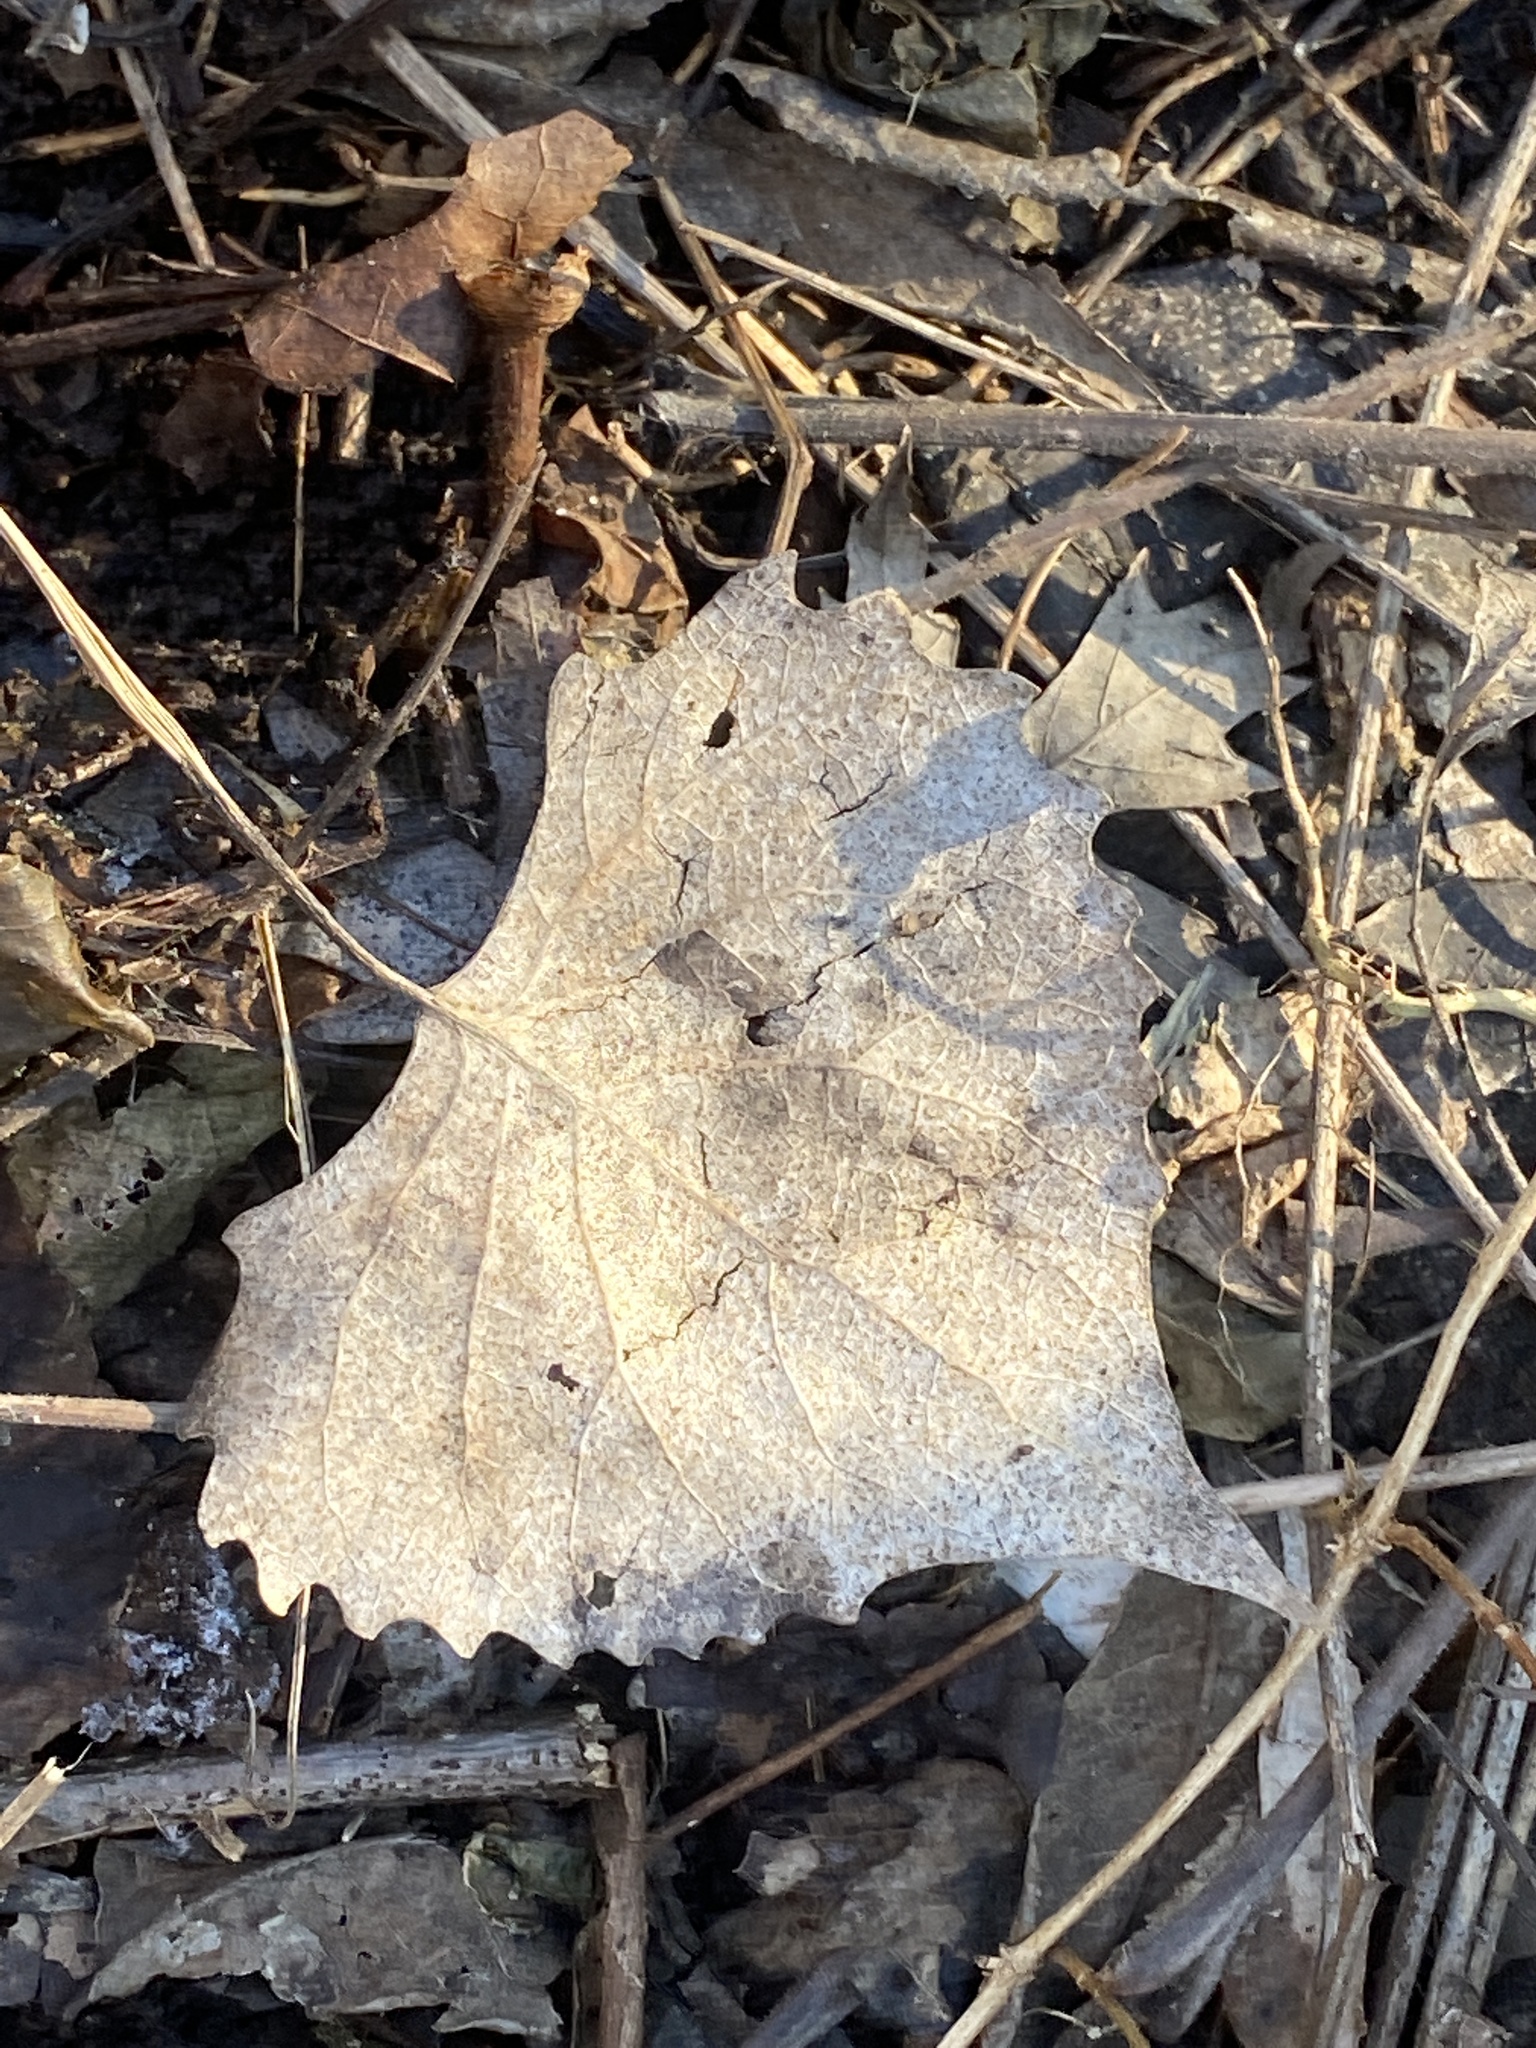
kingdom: Plantae
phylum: Tracheophyta
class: Magnoliopsida
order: Malpighiales
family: Salicaceae
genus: Populus
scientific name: Populus deltoides
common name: Eastern cottonwood
